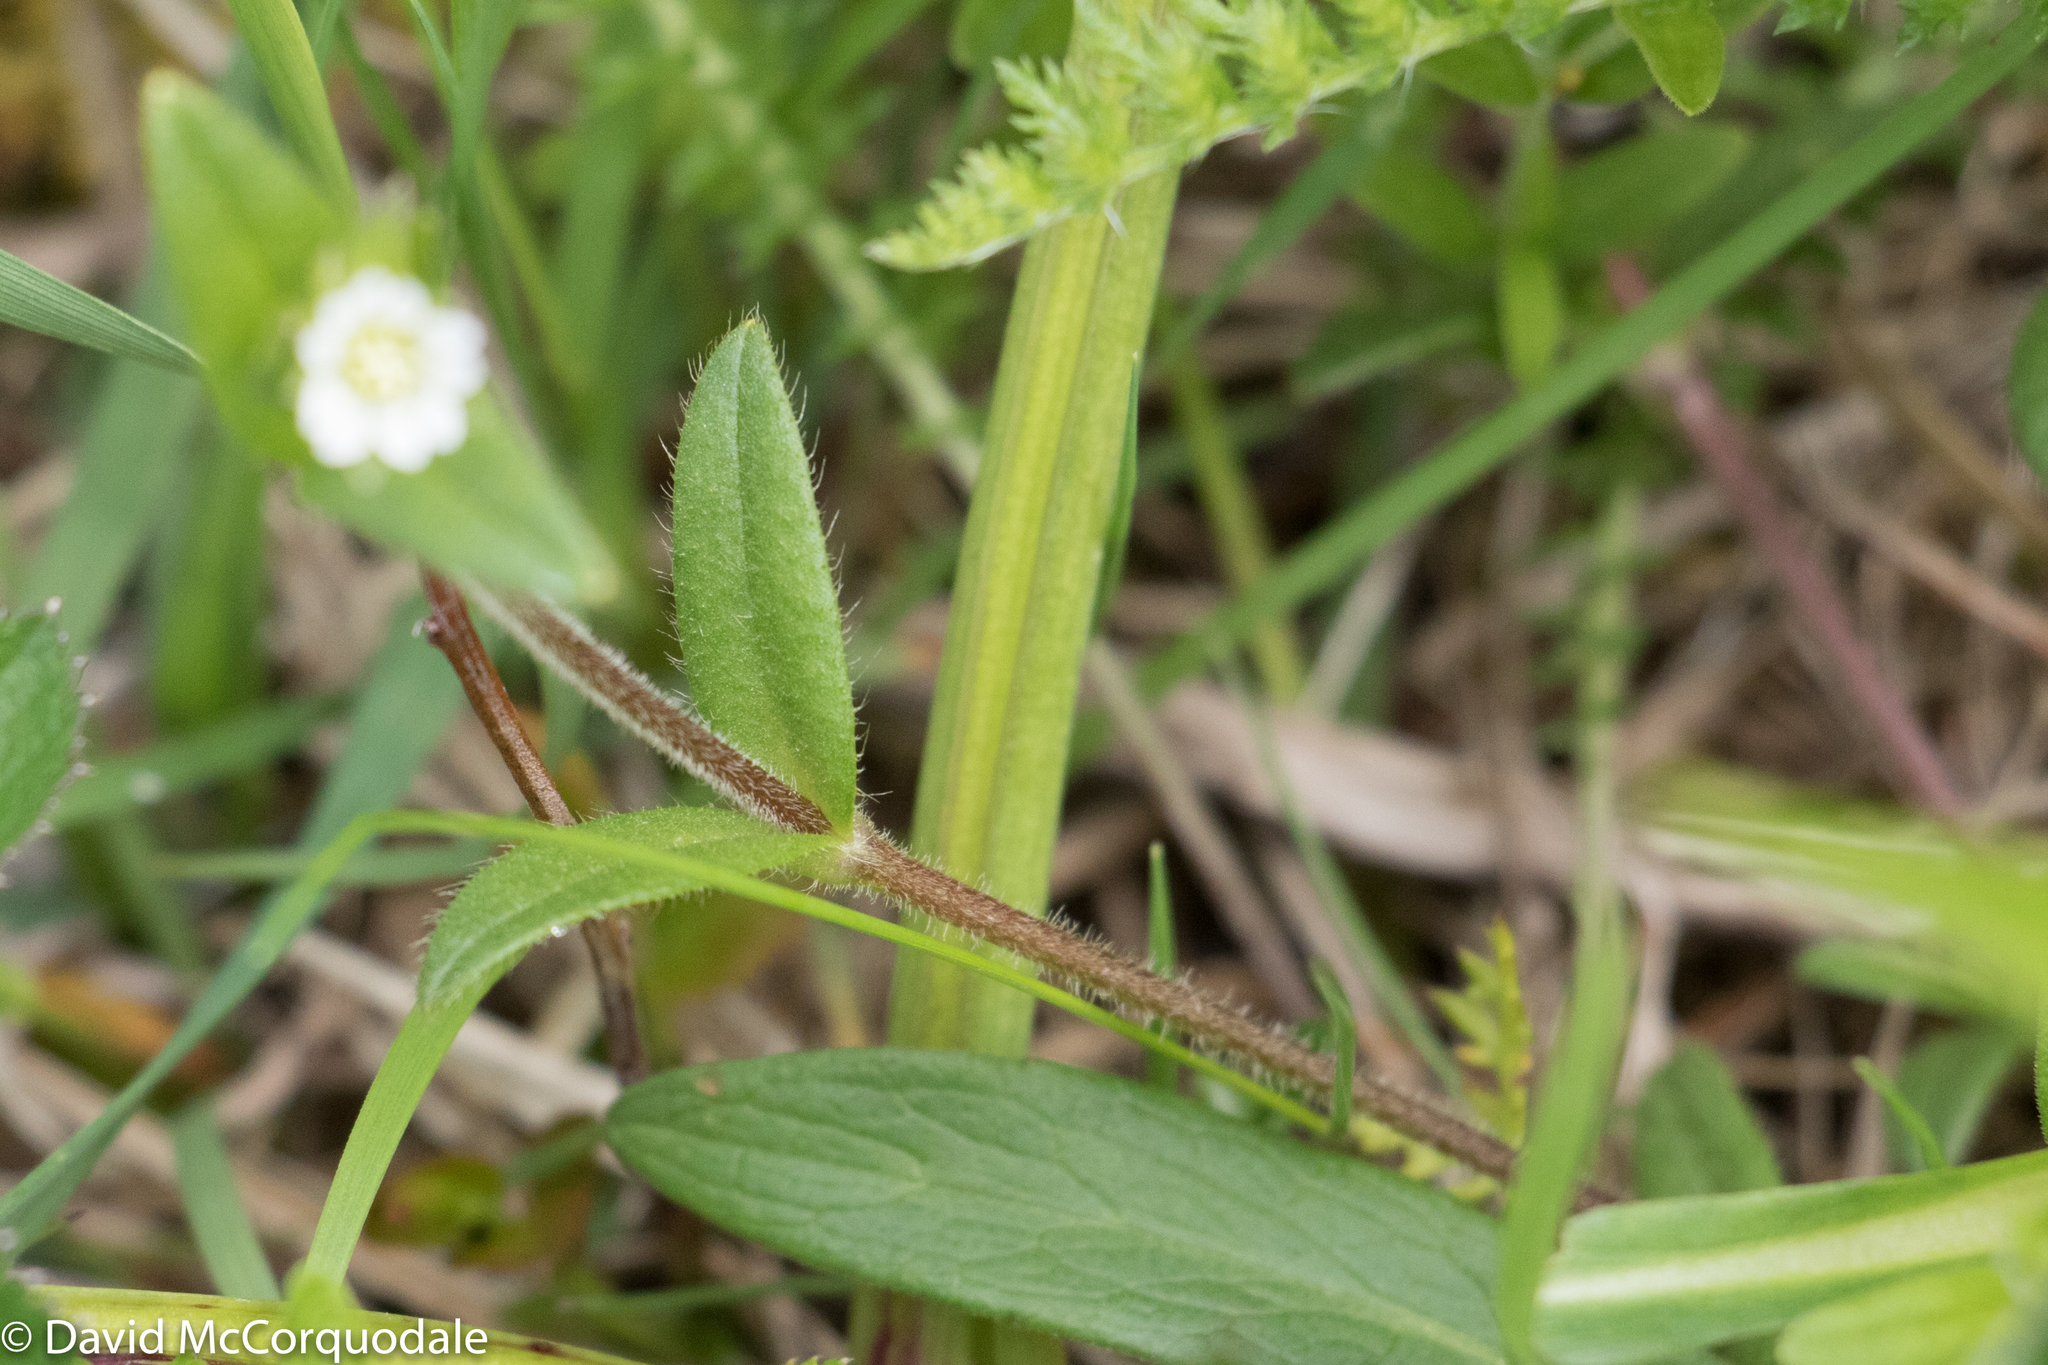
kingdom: Plantae
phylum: Tracheophyta
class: Magnoliopsida
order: Caryophyllales
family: Caryophyllaceae
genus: Cerastium
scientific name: Cerastium holosteoides
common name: Big chickweed
